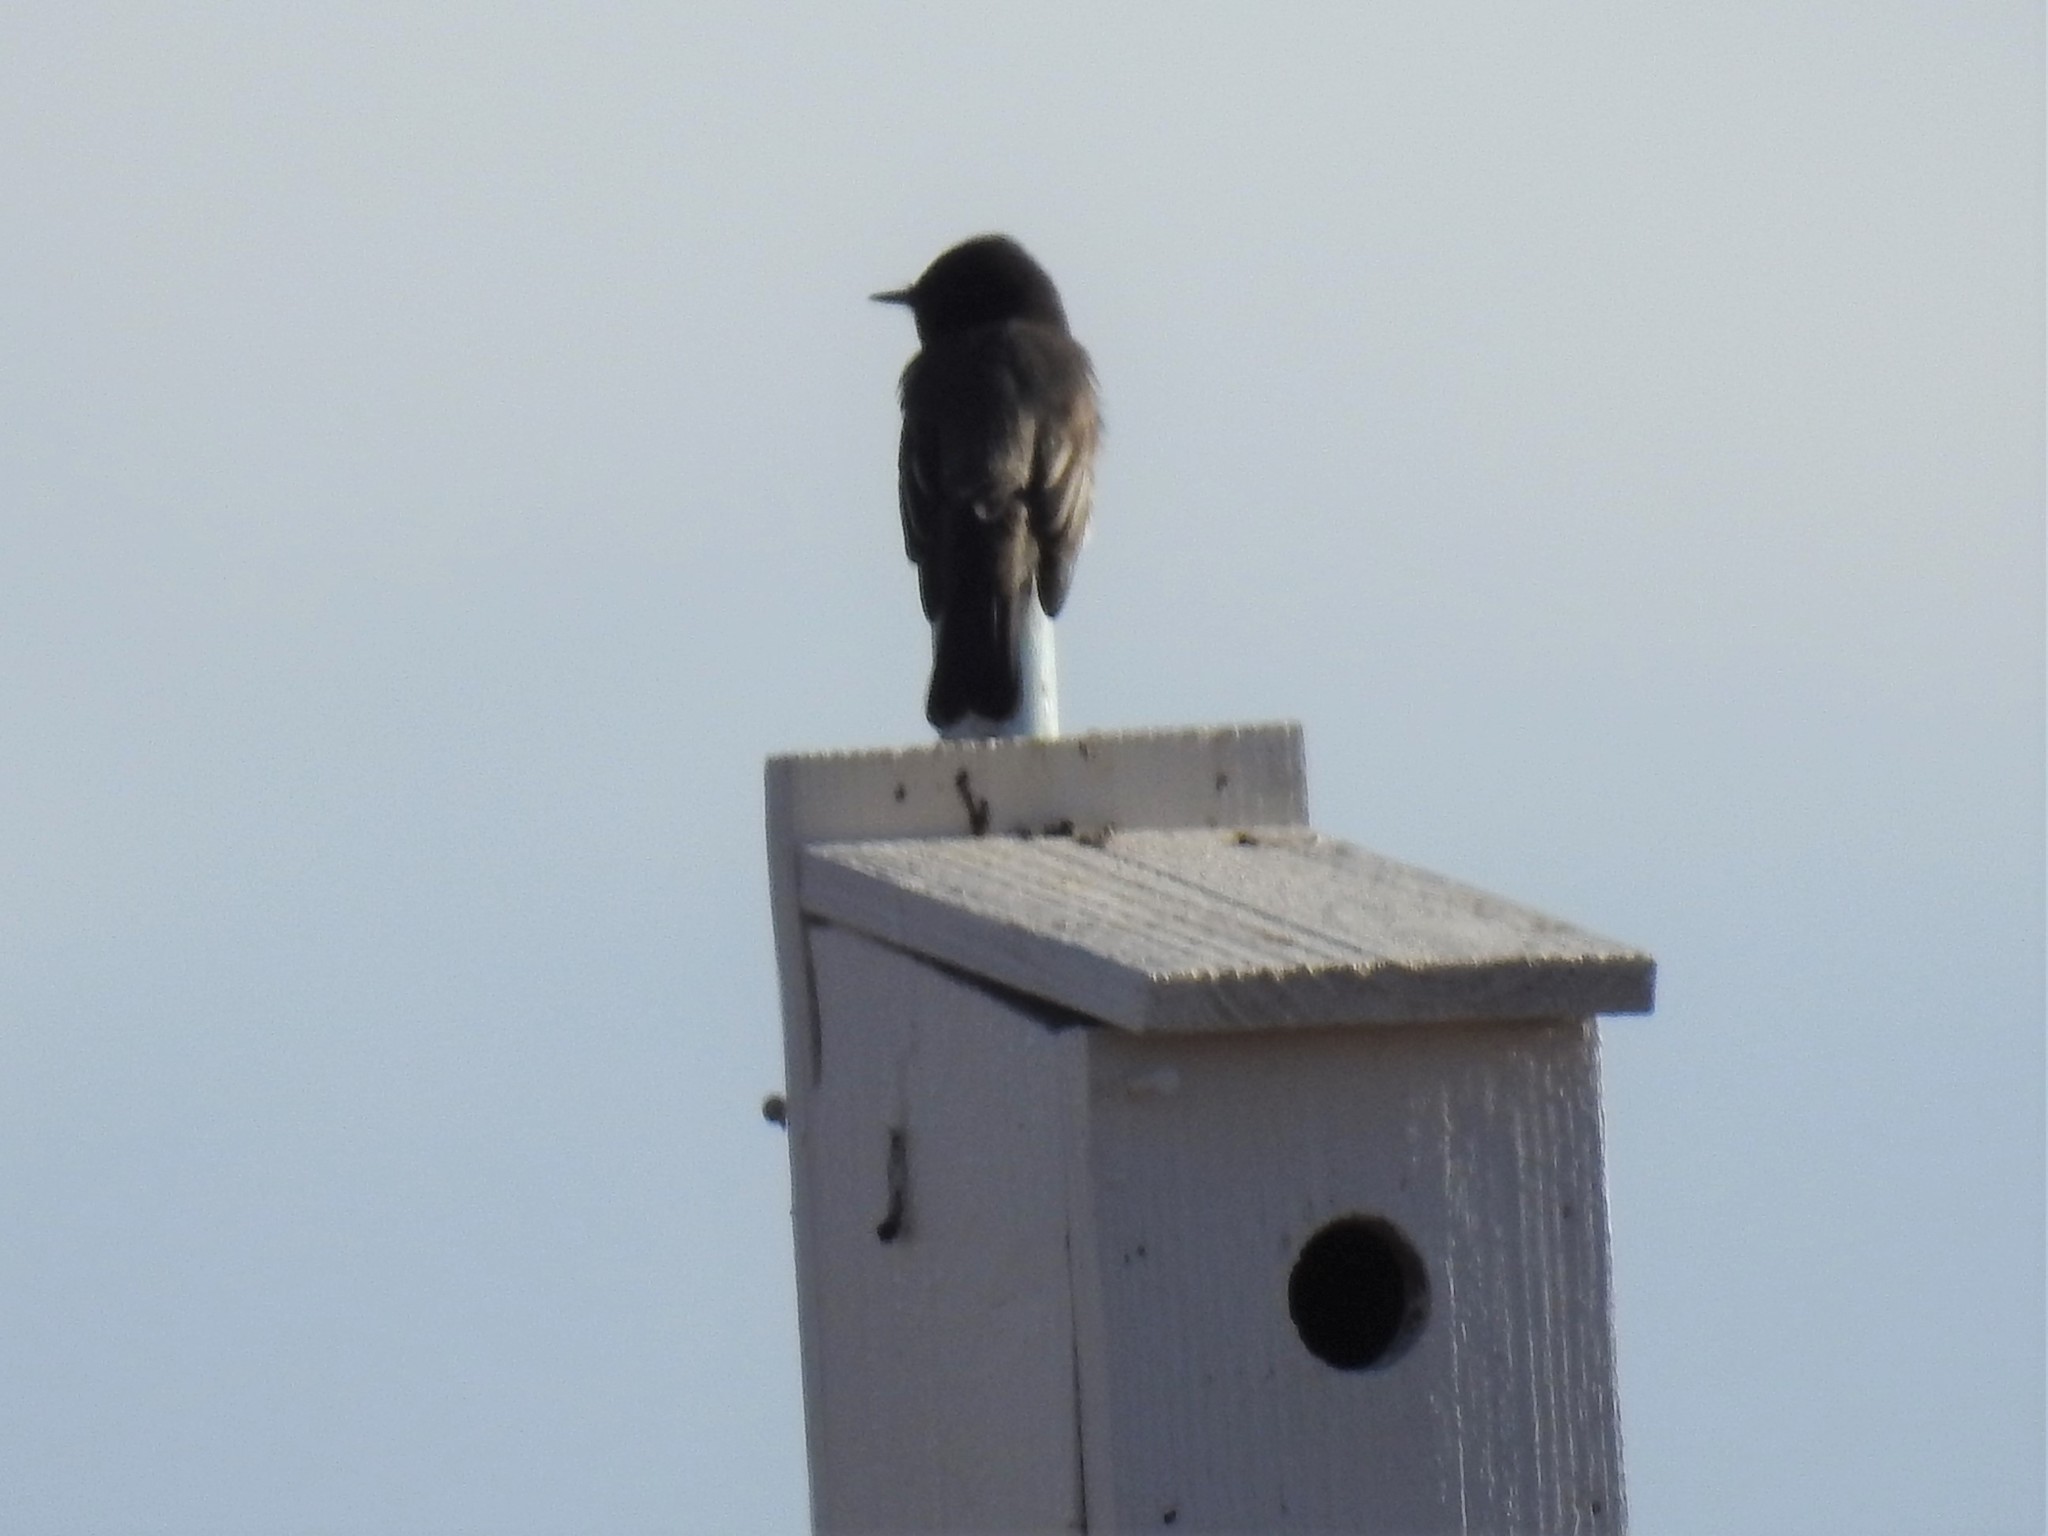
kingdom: Animalia
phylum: Chordata
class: Aves
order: Passeriformes
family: Tyrannidae
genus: Sayornis
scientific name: Sayornis nigricans
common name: Black phoebe
